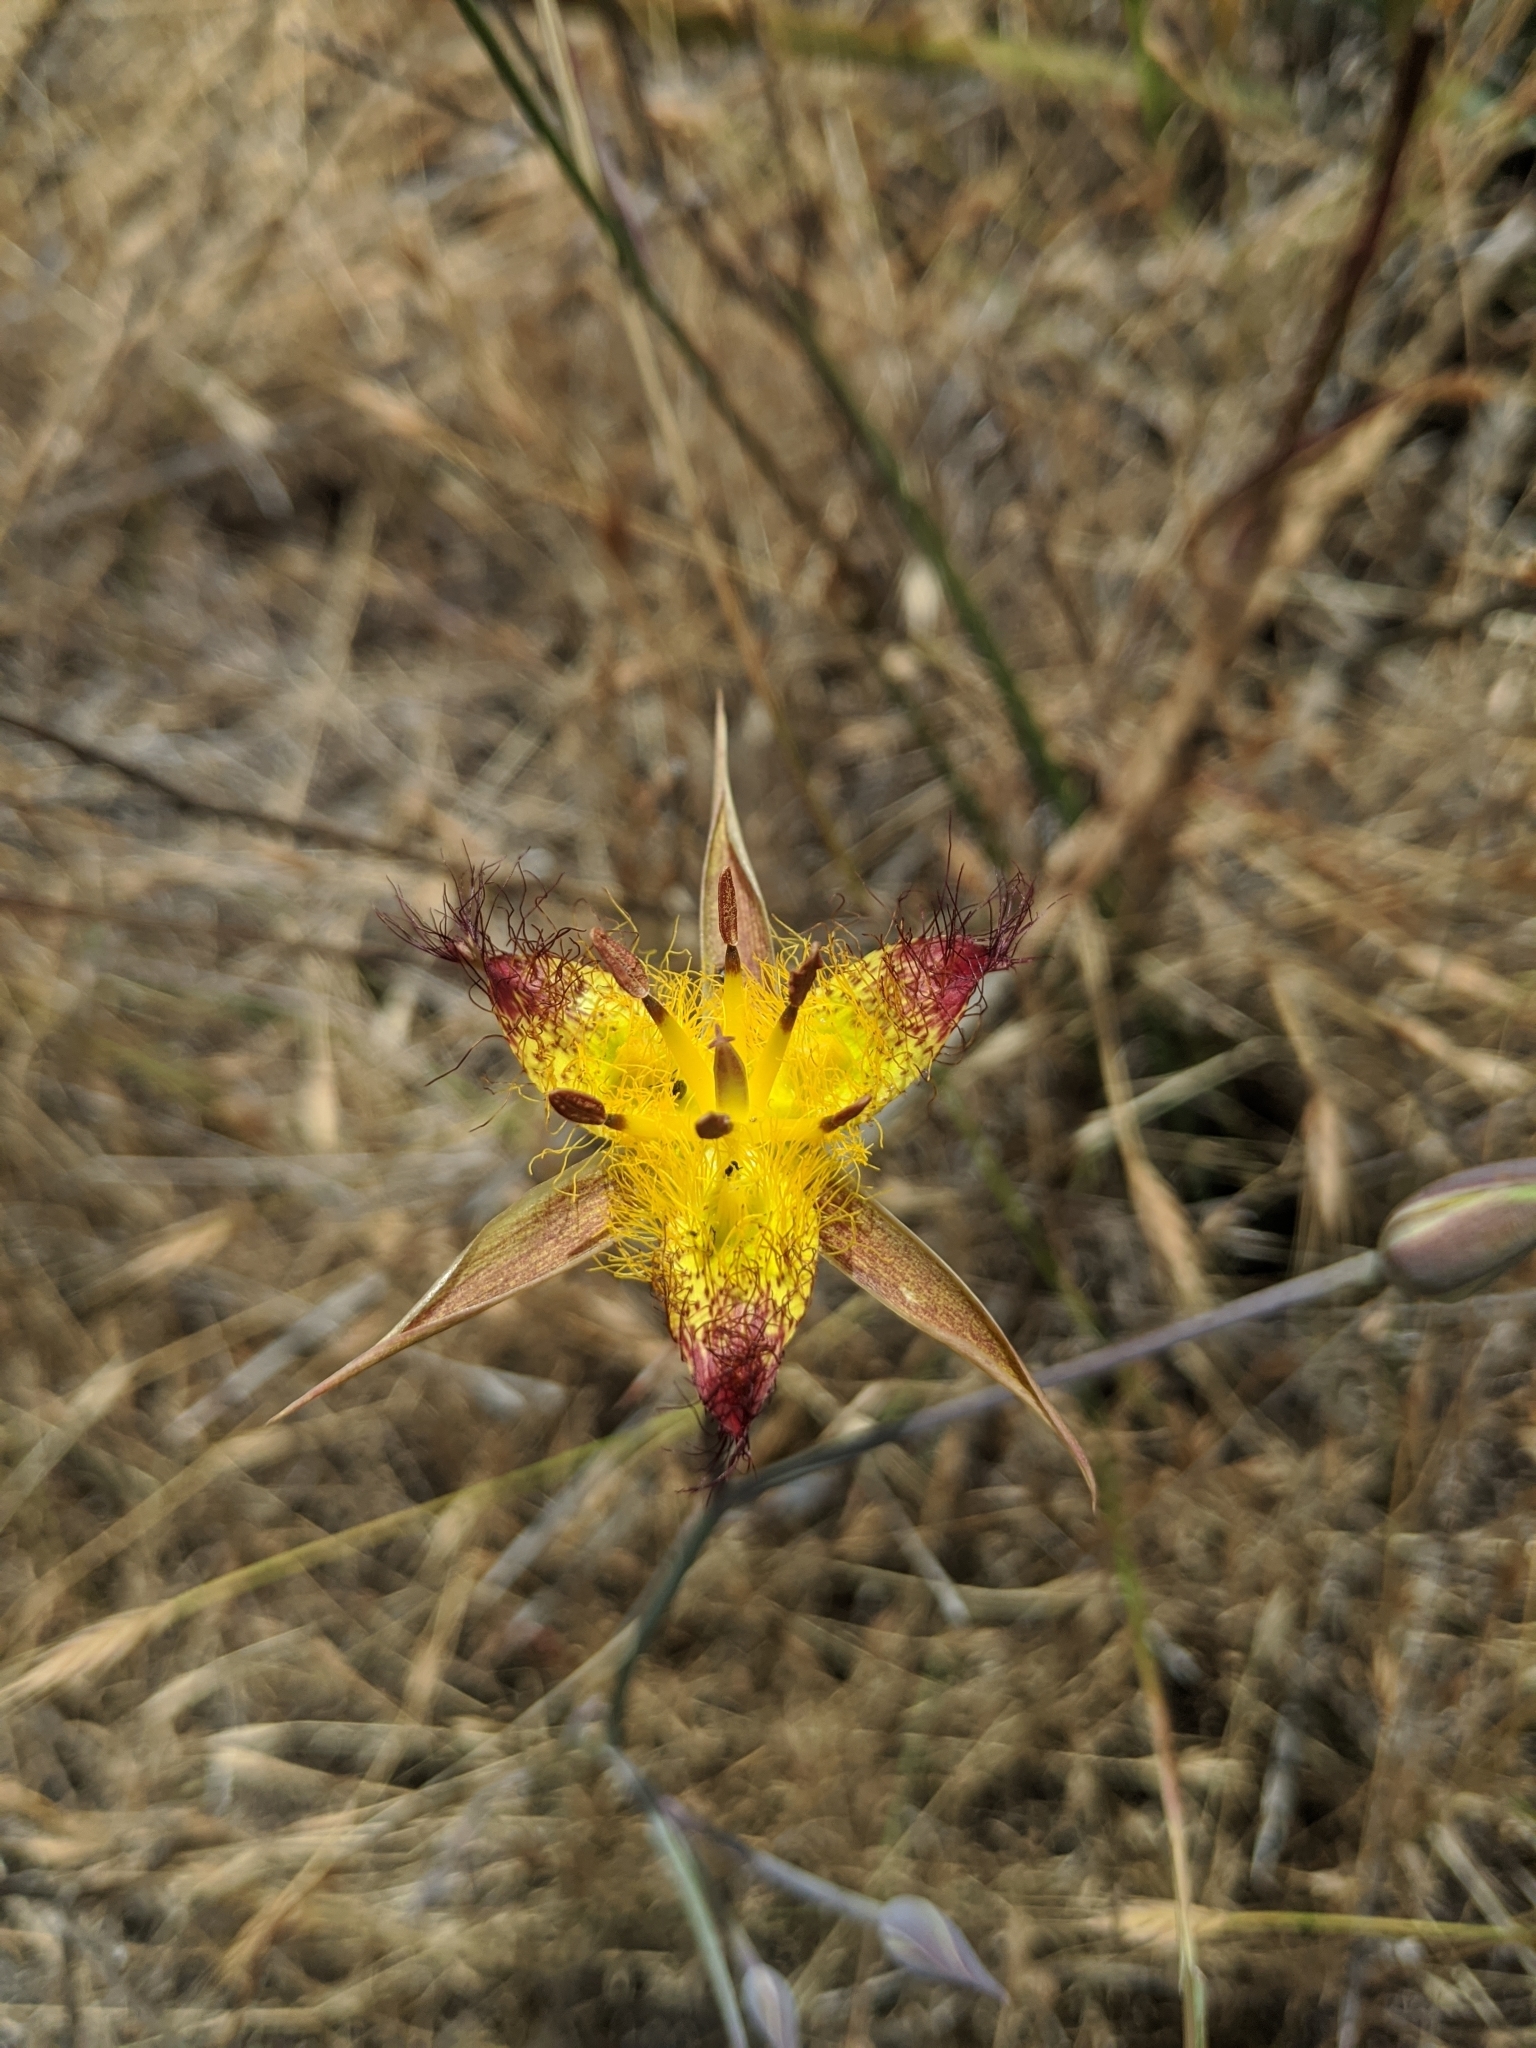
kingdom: Plantae
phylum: Tracheophyta
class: Liliopsida
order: Liliales
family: Liliaceae
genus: Calochortus
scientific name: Calochortus obispoensis
